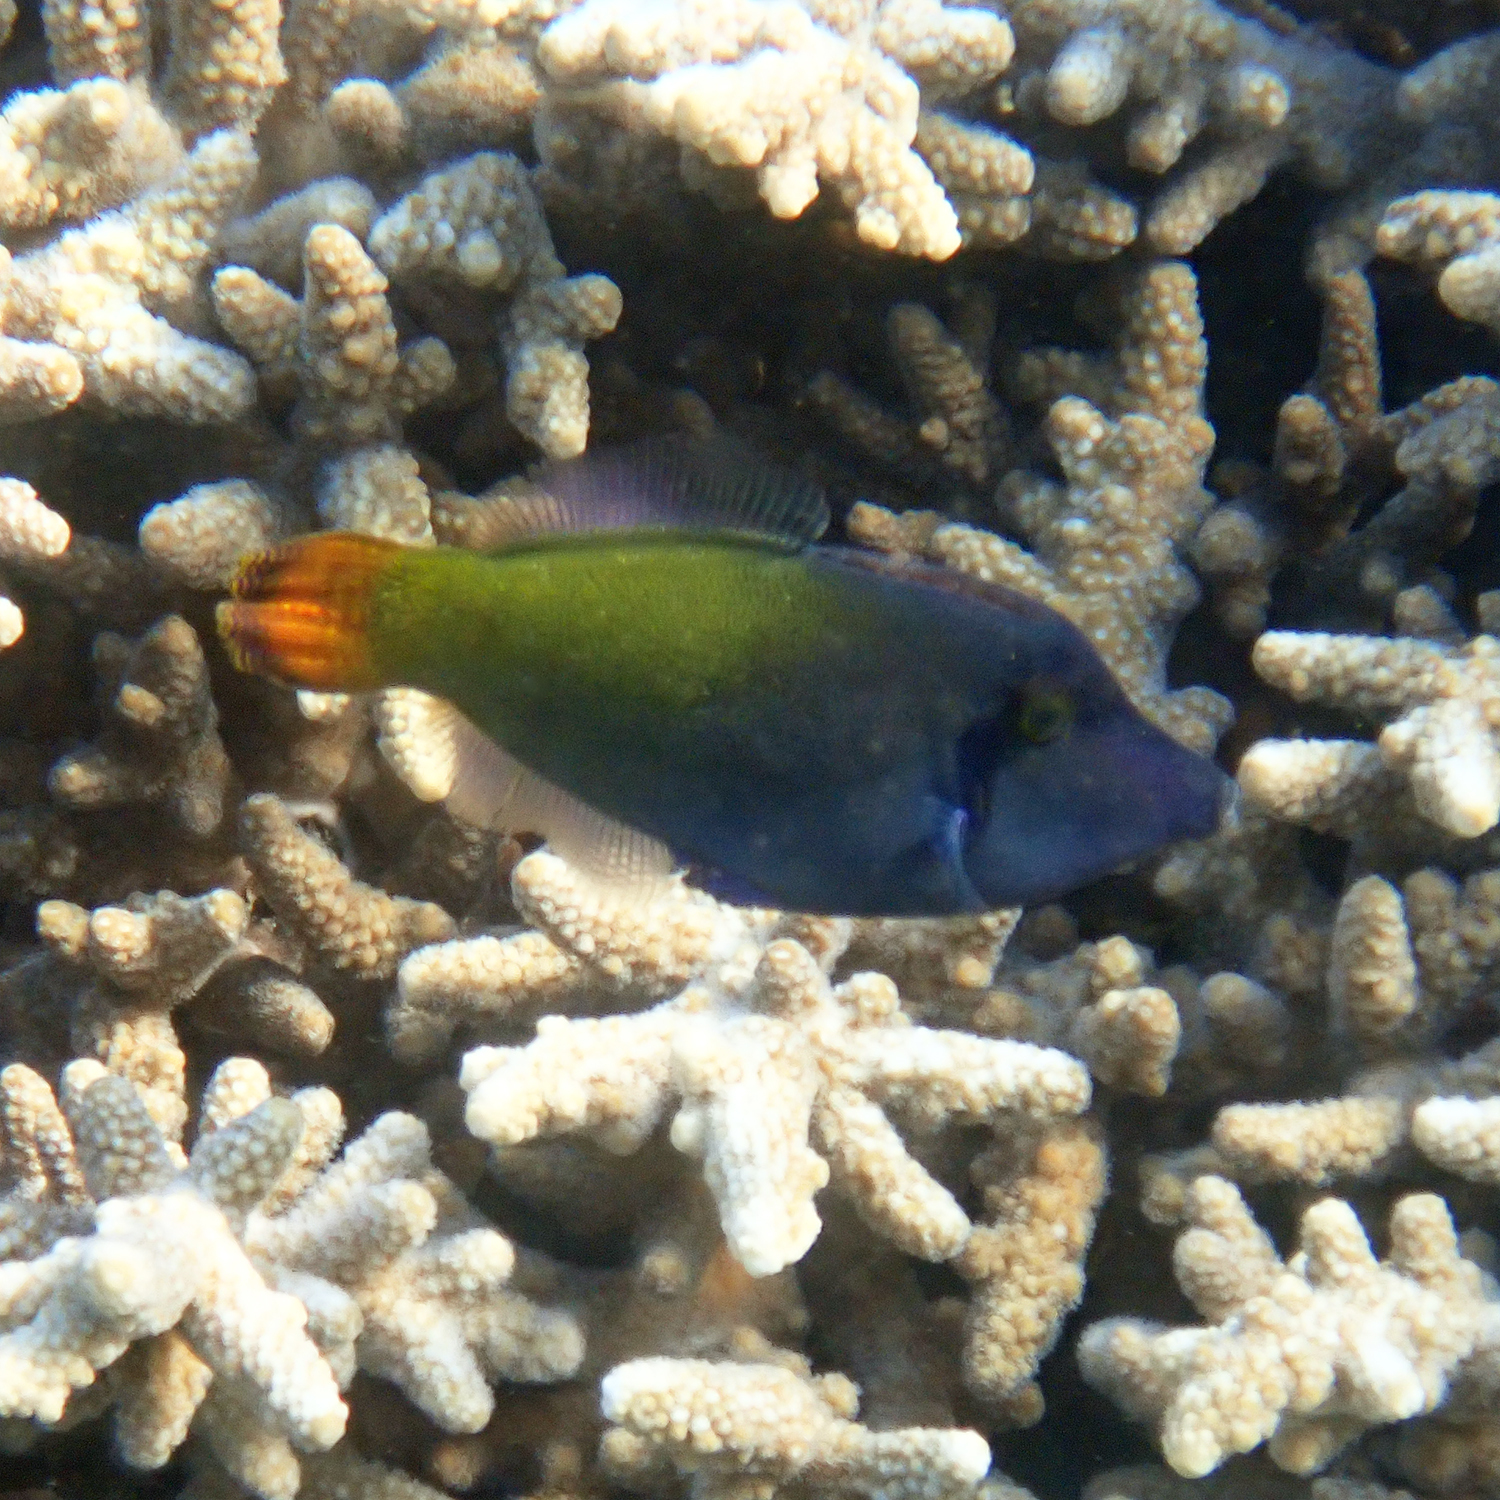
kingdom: Animalia
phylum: Chordata
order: Tetraodontiformes
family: Monacanthidae
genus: Pervagor
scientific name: Pervagor janthinosoma
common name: Blackbar filefish
